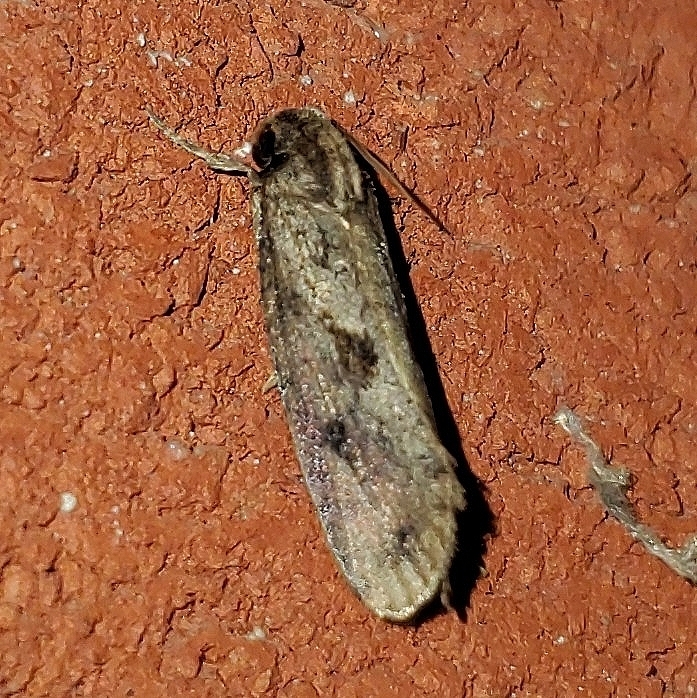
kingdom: Animalia
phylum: Arthropoda
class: Insecta
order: Lepidoptera
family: Tineidae
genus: Acrolophus
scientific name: Acrolophus popeanella
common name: Clemens' grass tubeworm moth
